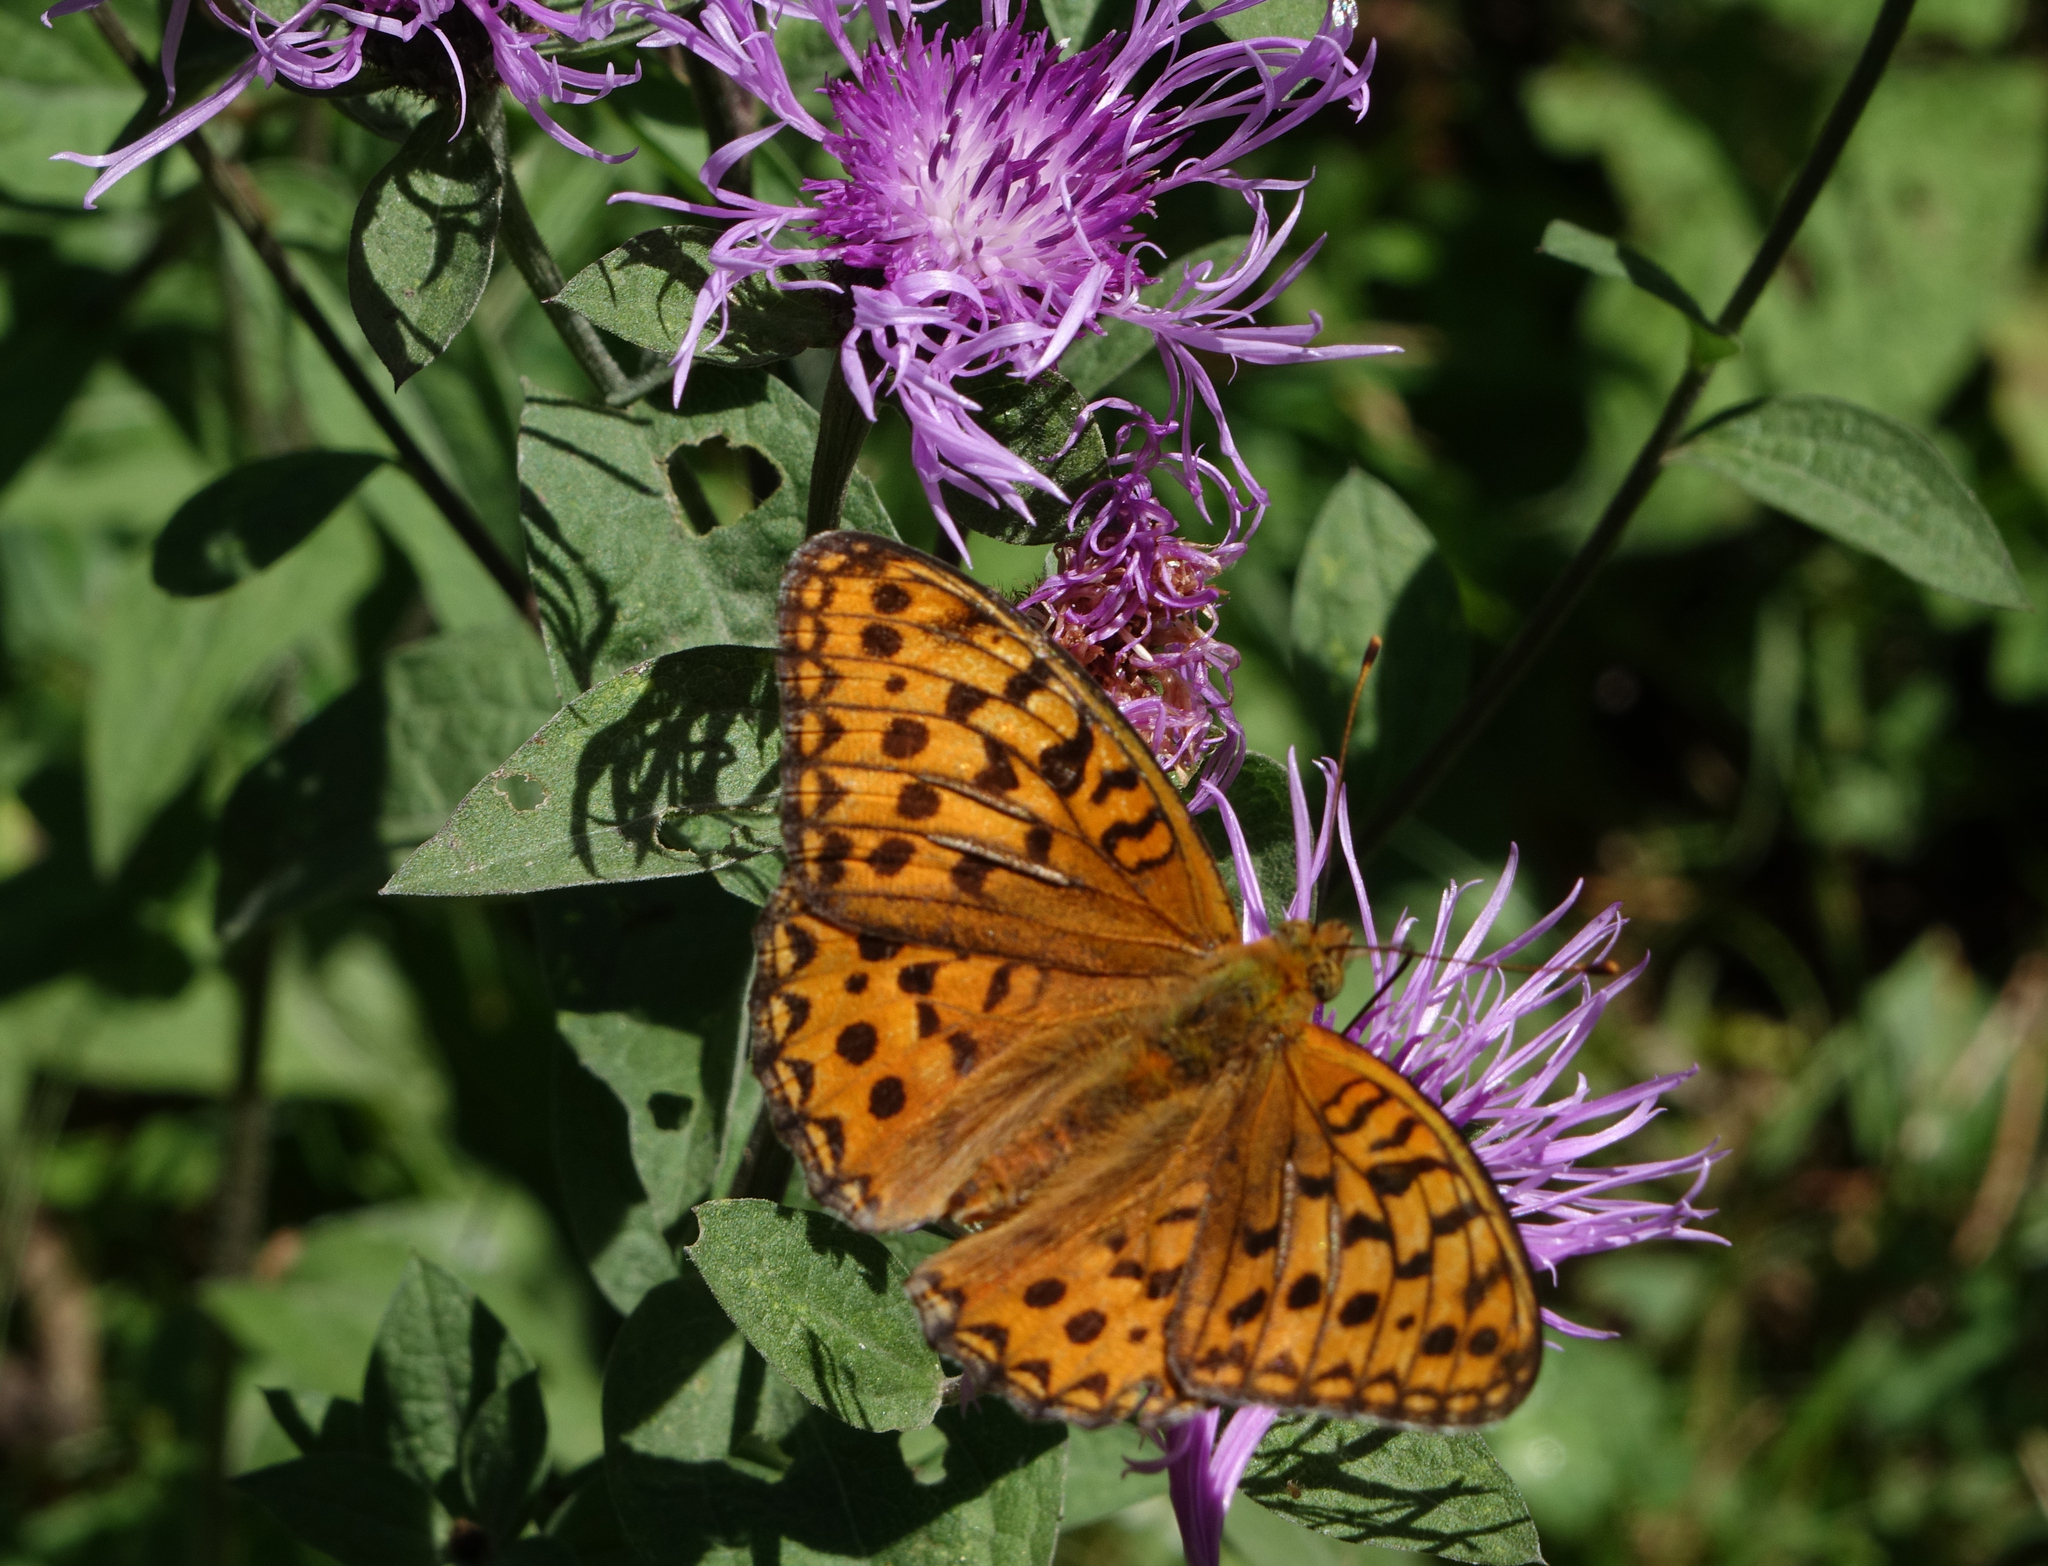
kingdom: Animalia
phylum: Arthropoda
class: Insecta
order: Lepidoptera
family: Nymphalidae
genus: Fabriciana
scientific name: Fabriciana adippe
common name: High brown fritillary
